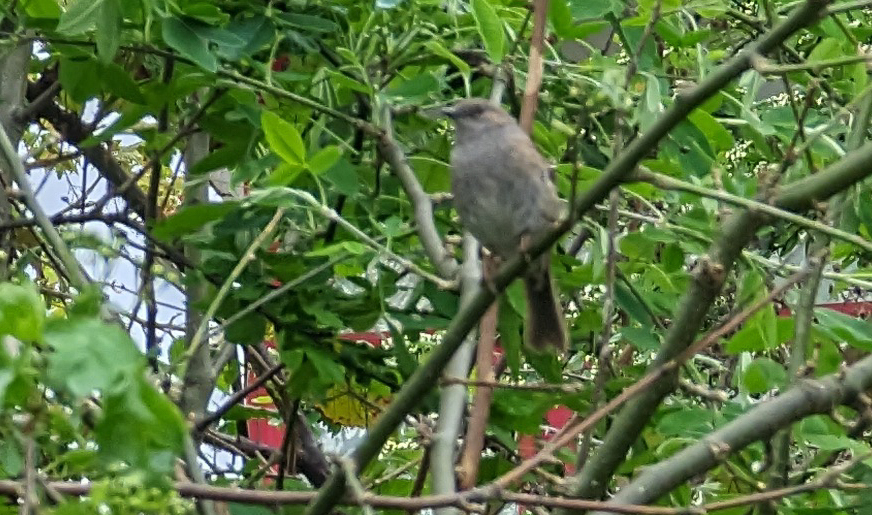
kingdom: Animalia
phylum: Chordata
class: Aves
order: Passeriformes
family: Prunellidae
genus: Prunella
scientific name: Prunella modularis
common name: Dunnock
